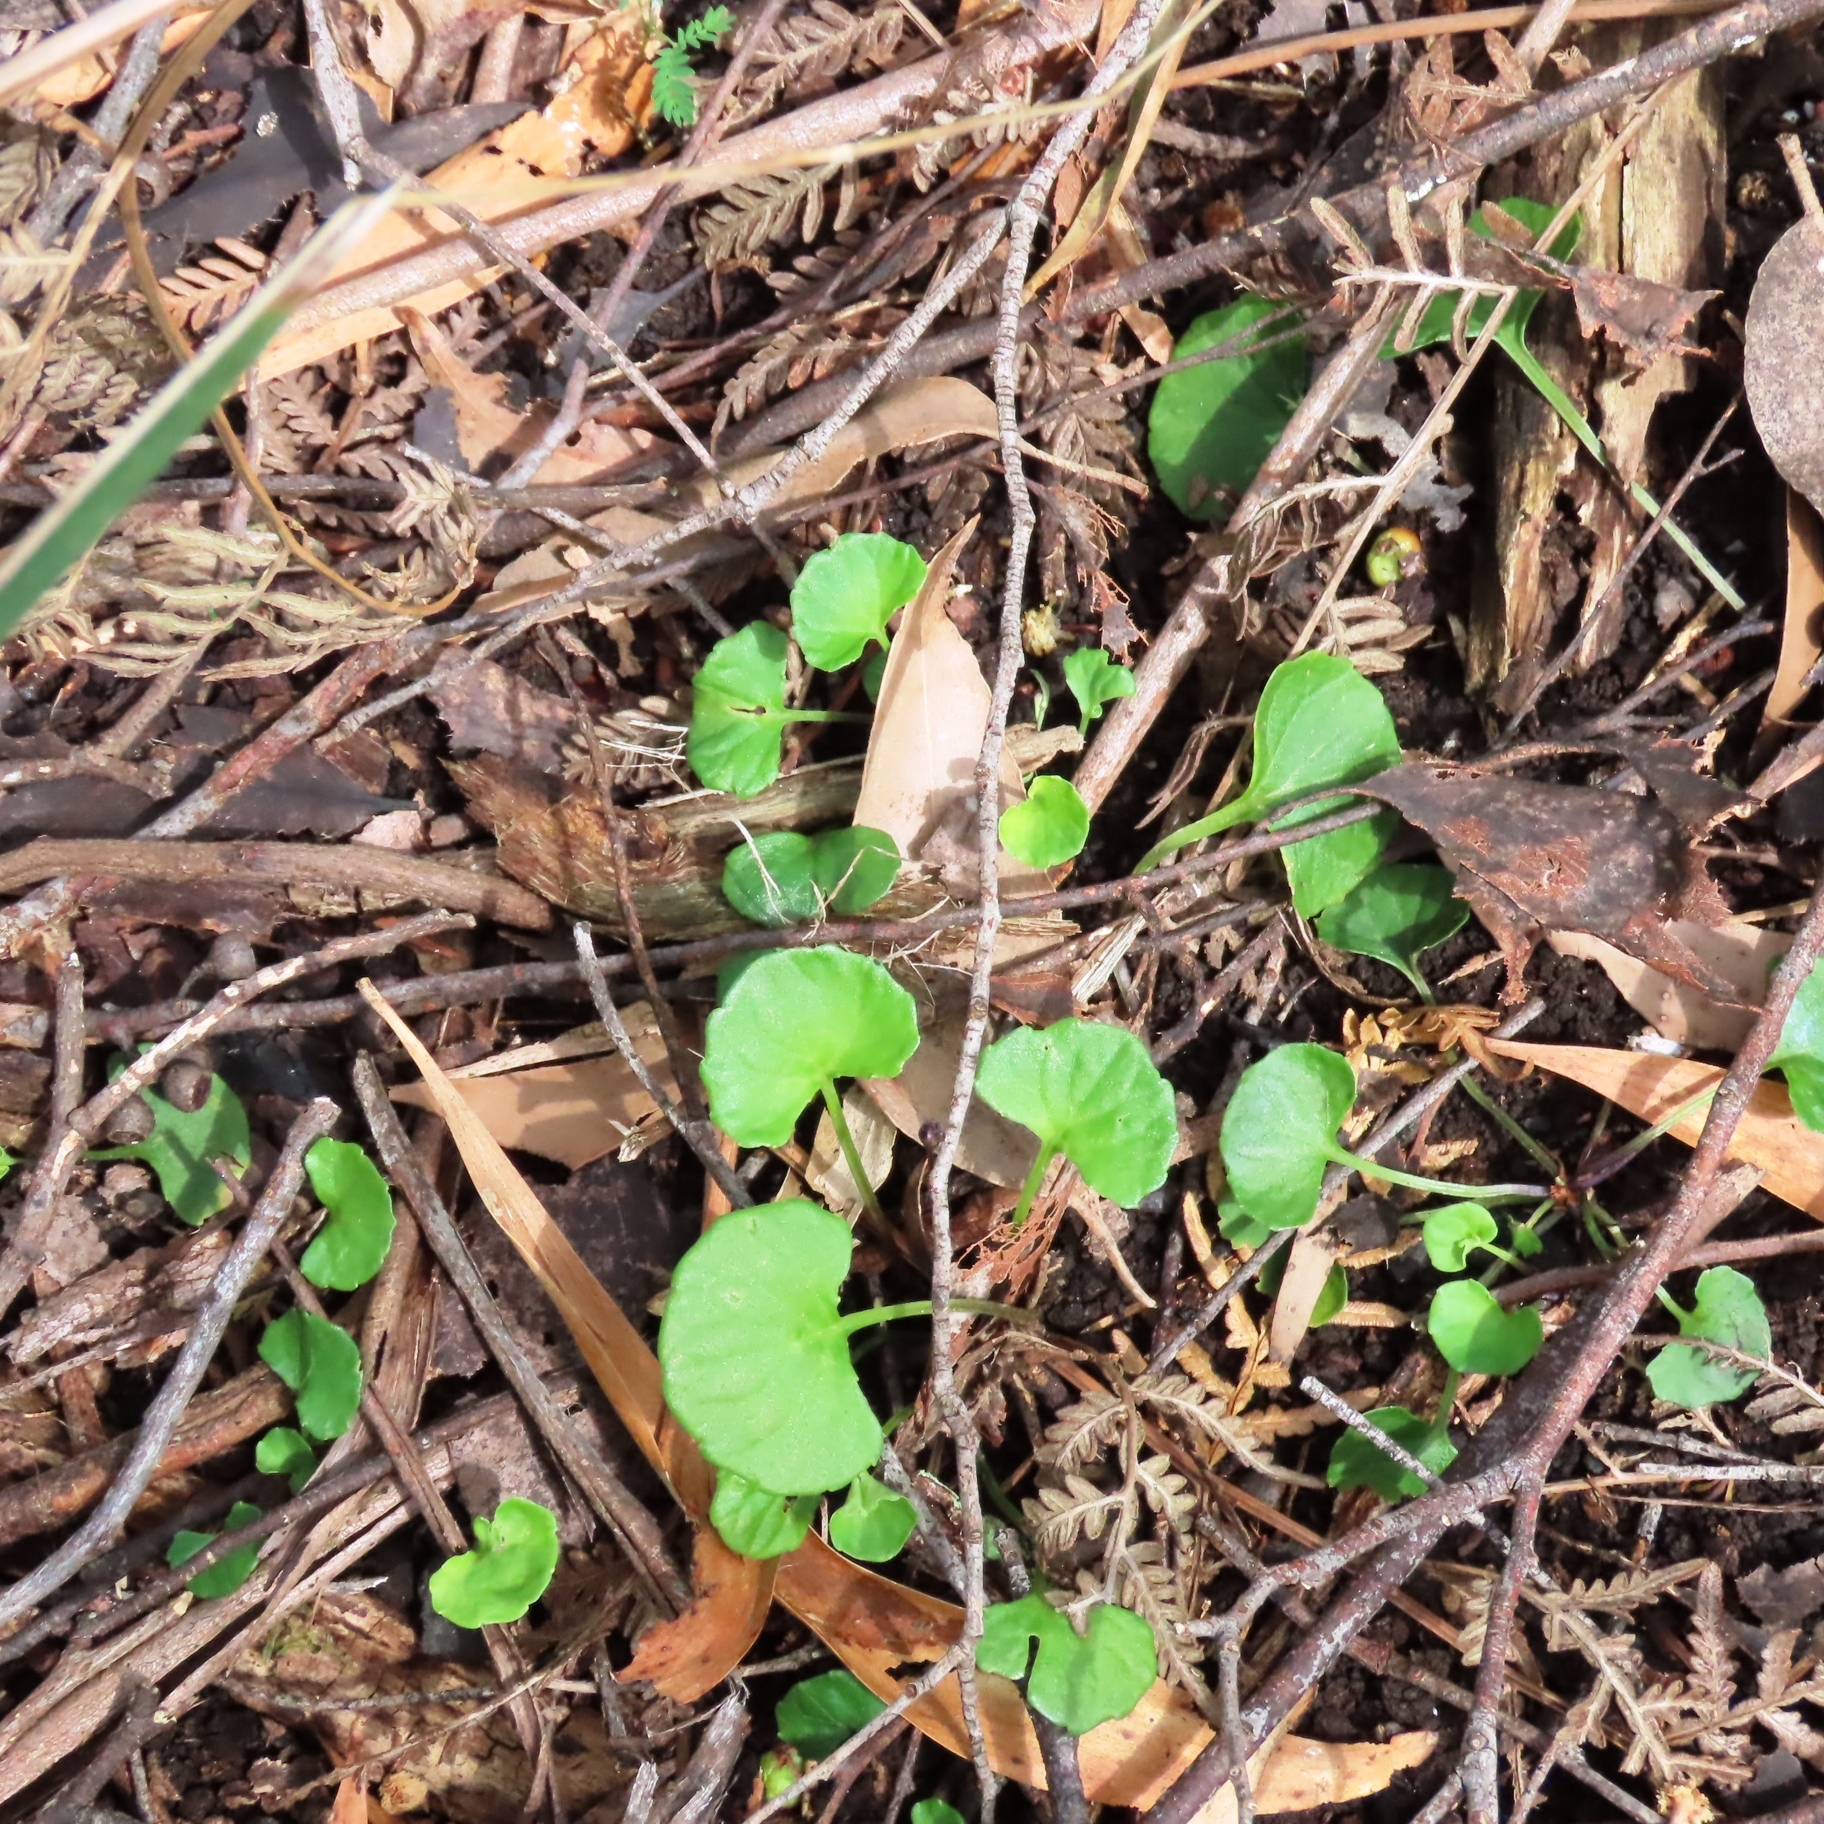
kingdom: Plantae
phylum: Tracheophyta
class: Magnoliopsida
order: Malpighiales
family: Violaceae
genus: Viola
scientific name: Viola hederacea
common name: Australian violet
